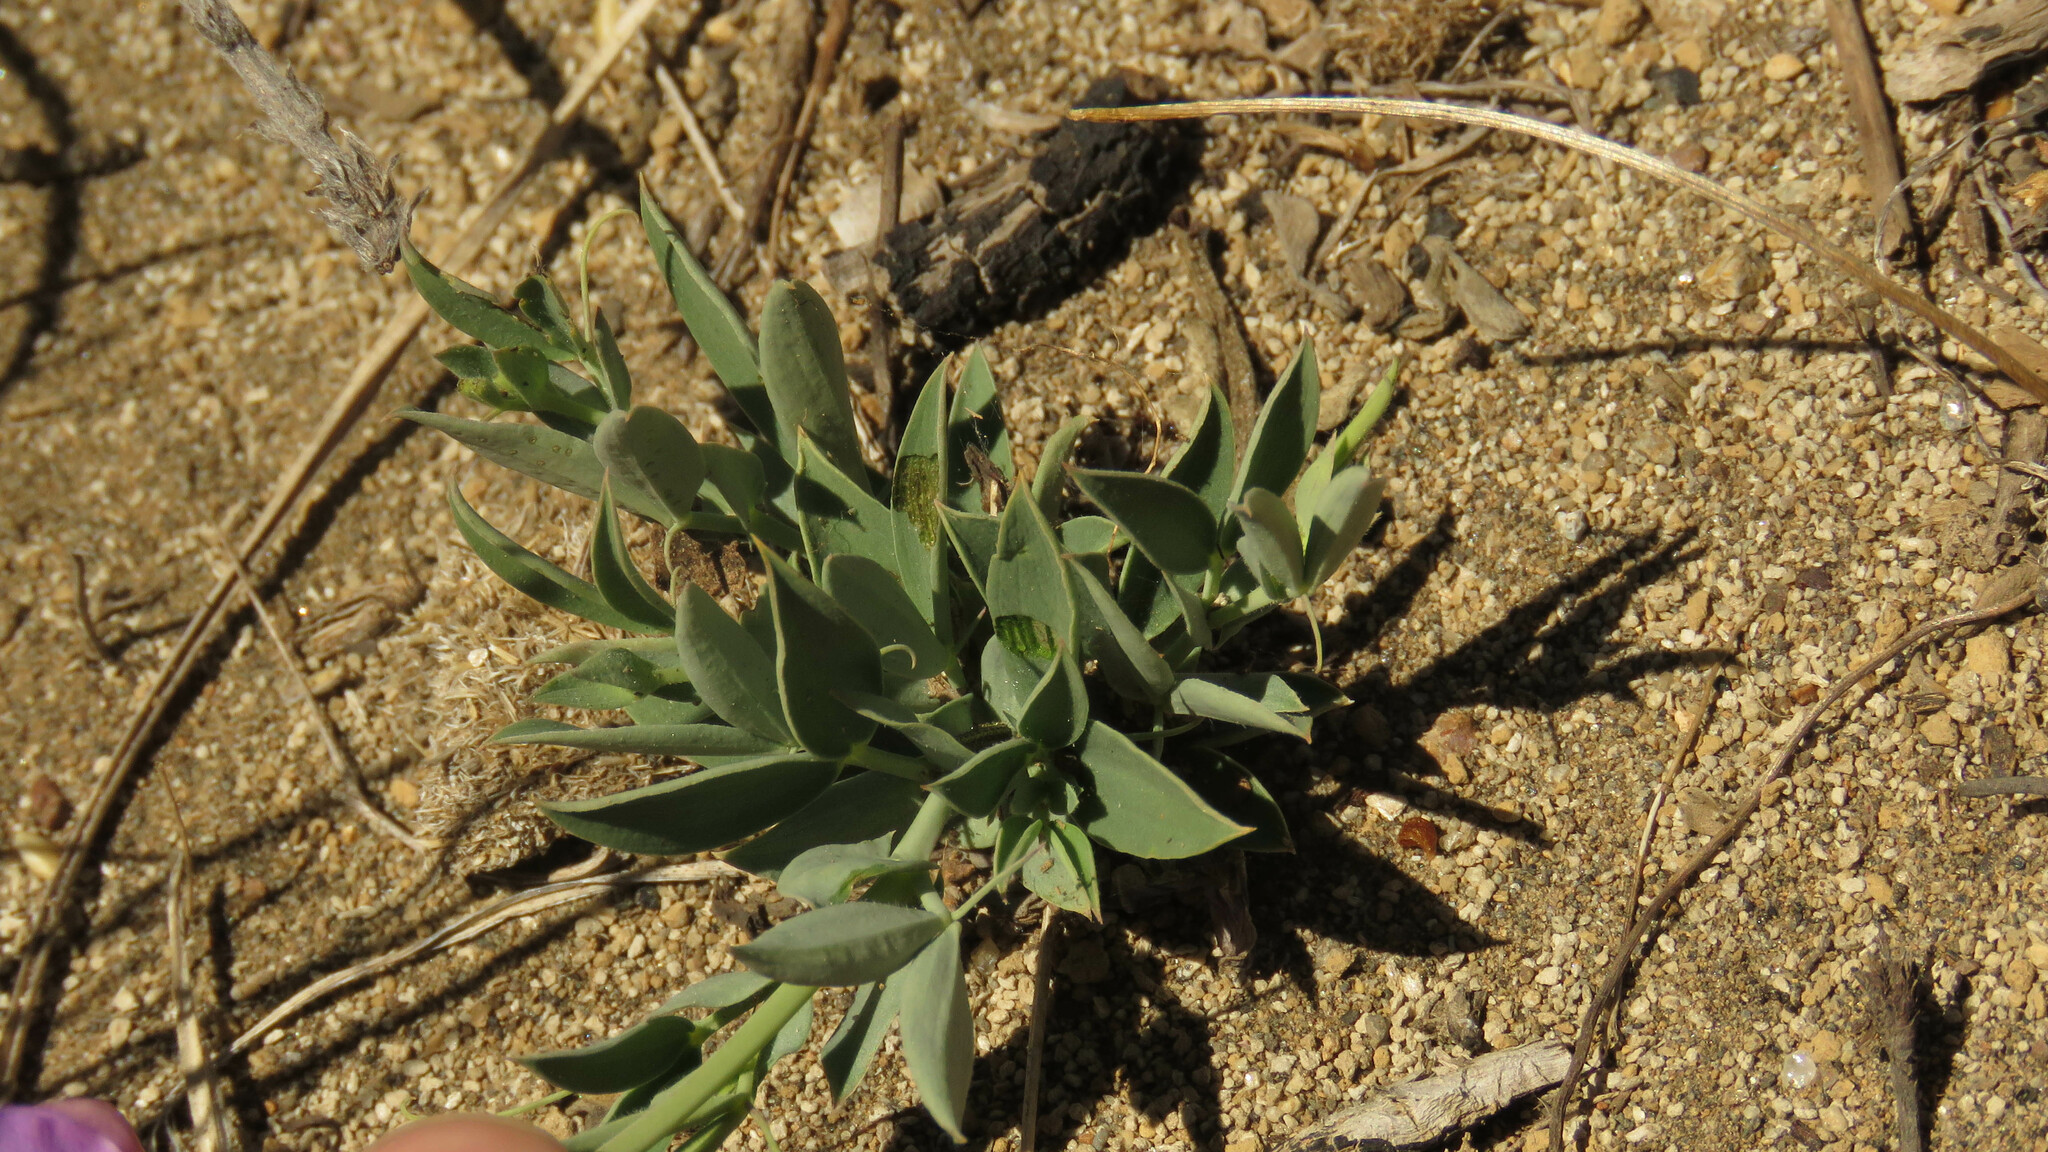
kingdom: Plantae
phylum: Tracheophyta
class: Magnoliopsida
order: Fabales
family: Fabaceae
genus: Lathyrus
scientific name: Lathyrus magellanicus
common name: Lord anson's pea
